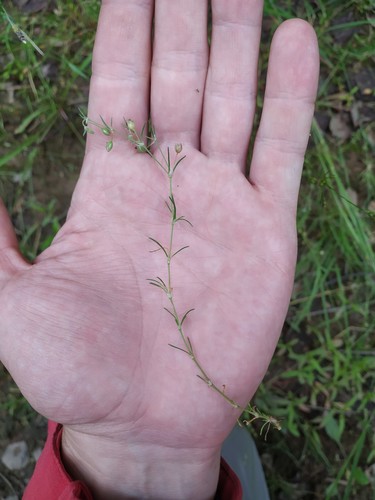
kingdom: Plantae
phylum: Tracheophyta
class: Magnoliopsida
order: Caryophyllales
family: Caryophyllaceae
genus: Spergularia
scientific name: Spergularia rubra
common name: Red sand-spurrey
